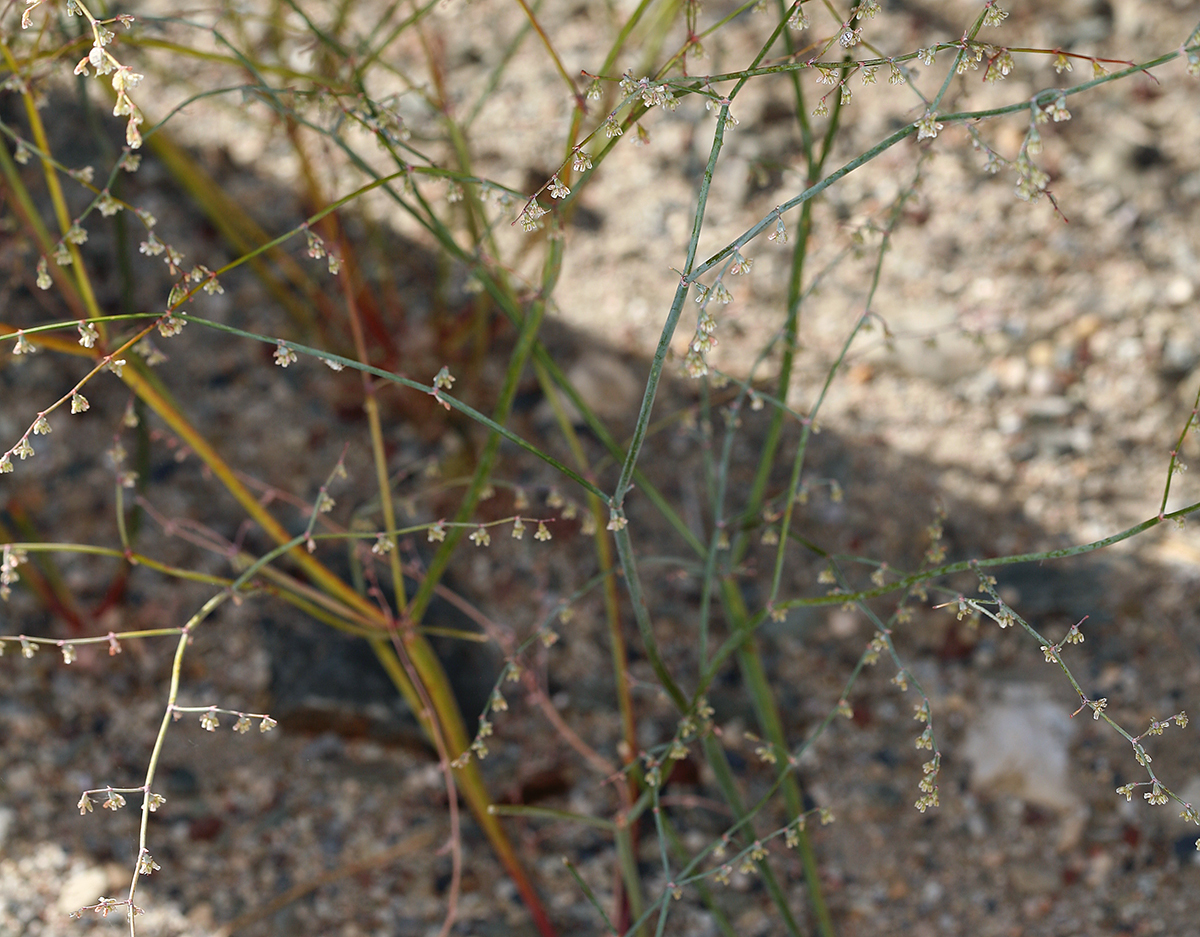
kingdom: Plantae
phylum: Tracheophyta
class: Magnoliopsida
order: Caryophyllales
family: Polygonaceae
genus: Eriogonum
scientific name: Eriogonum deflexum
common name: Skeleton-weed
